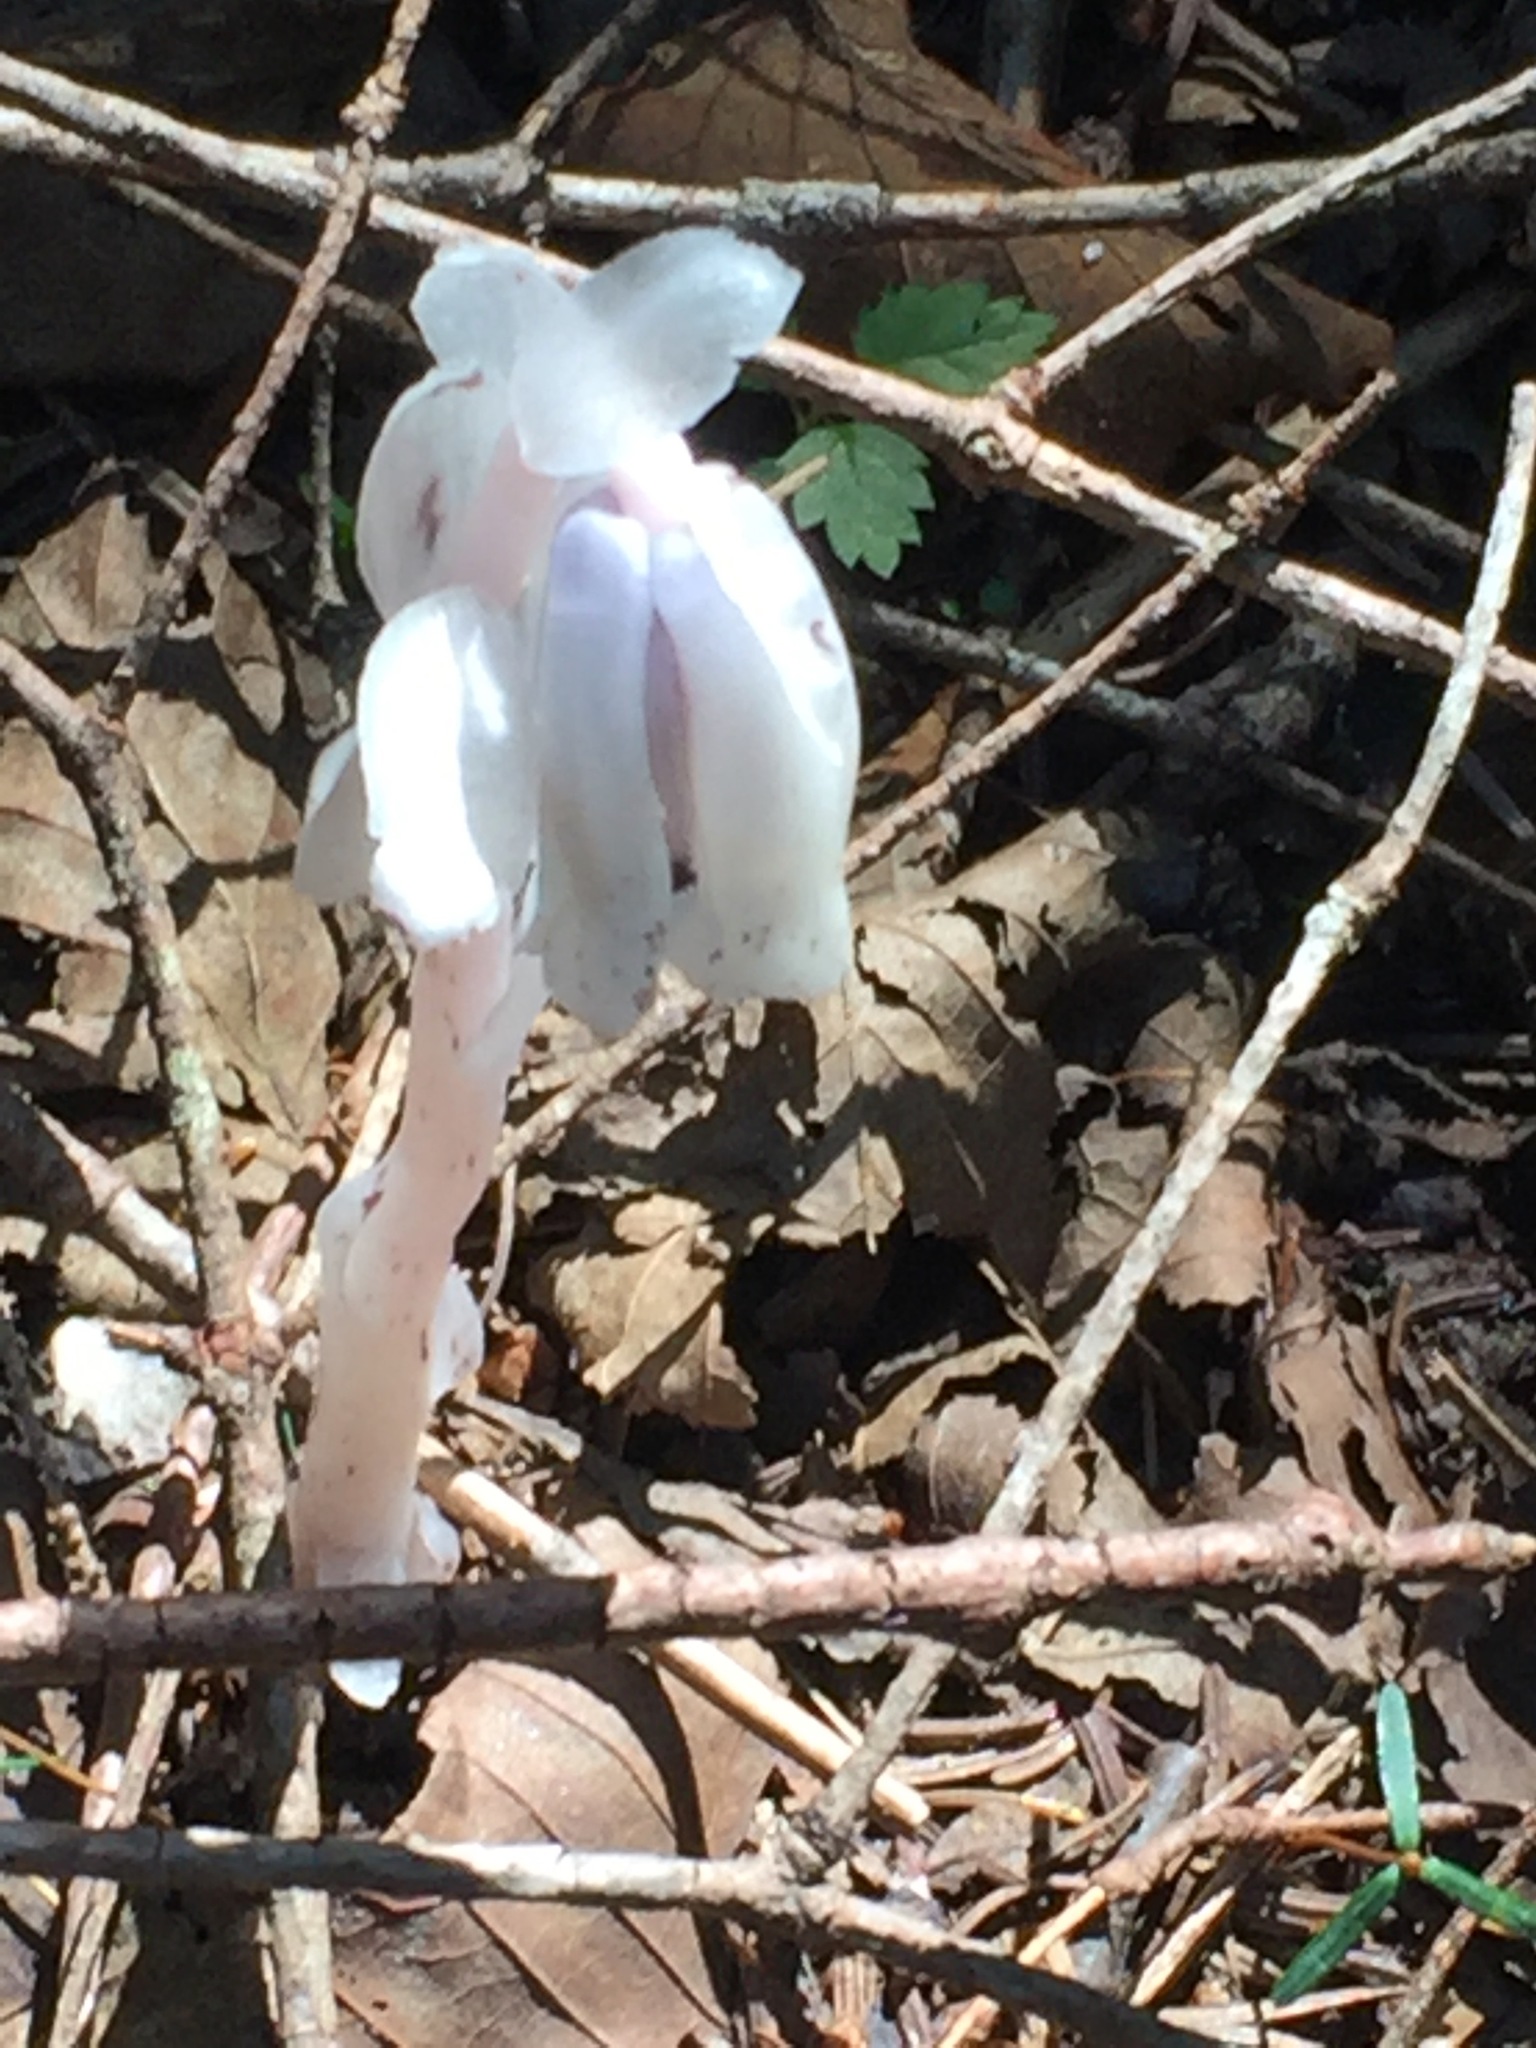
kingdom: Plantae
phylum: Tracheophyta
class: Magnoliopsida
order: Ericales
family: Ericaceae
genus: Monotropa
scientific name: Monotropa uniflora
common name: Convulsion root
